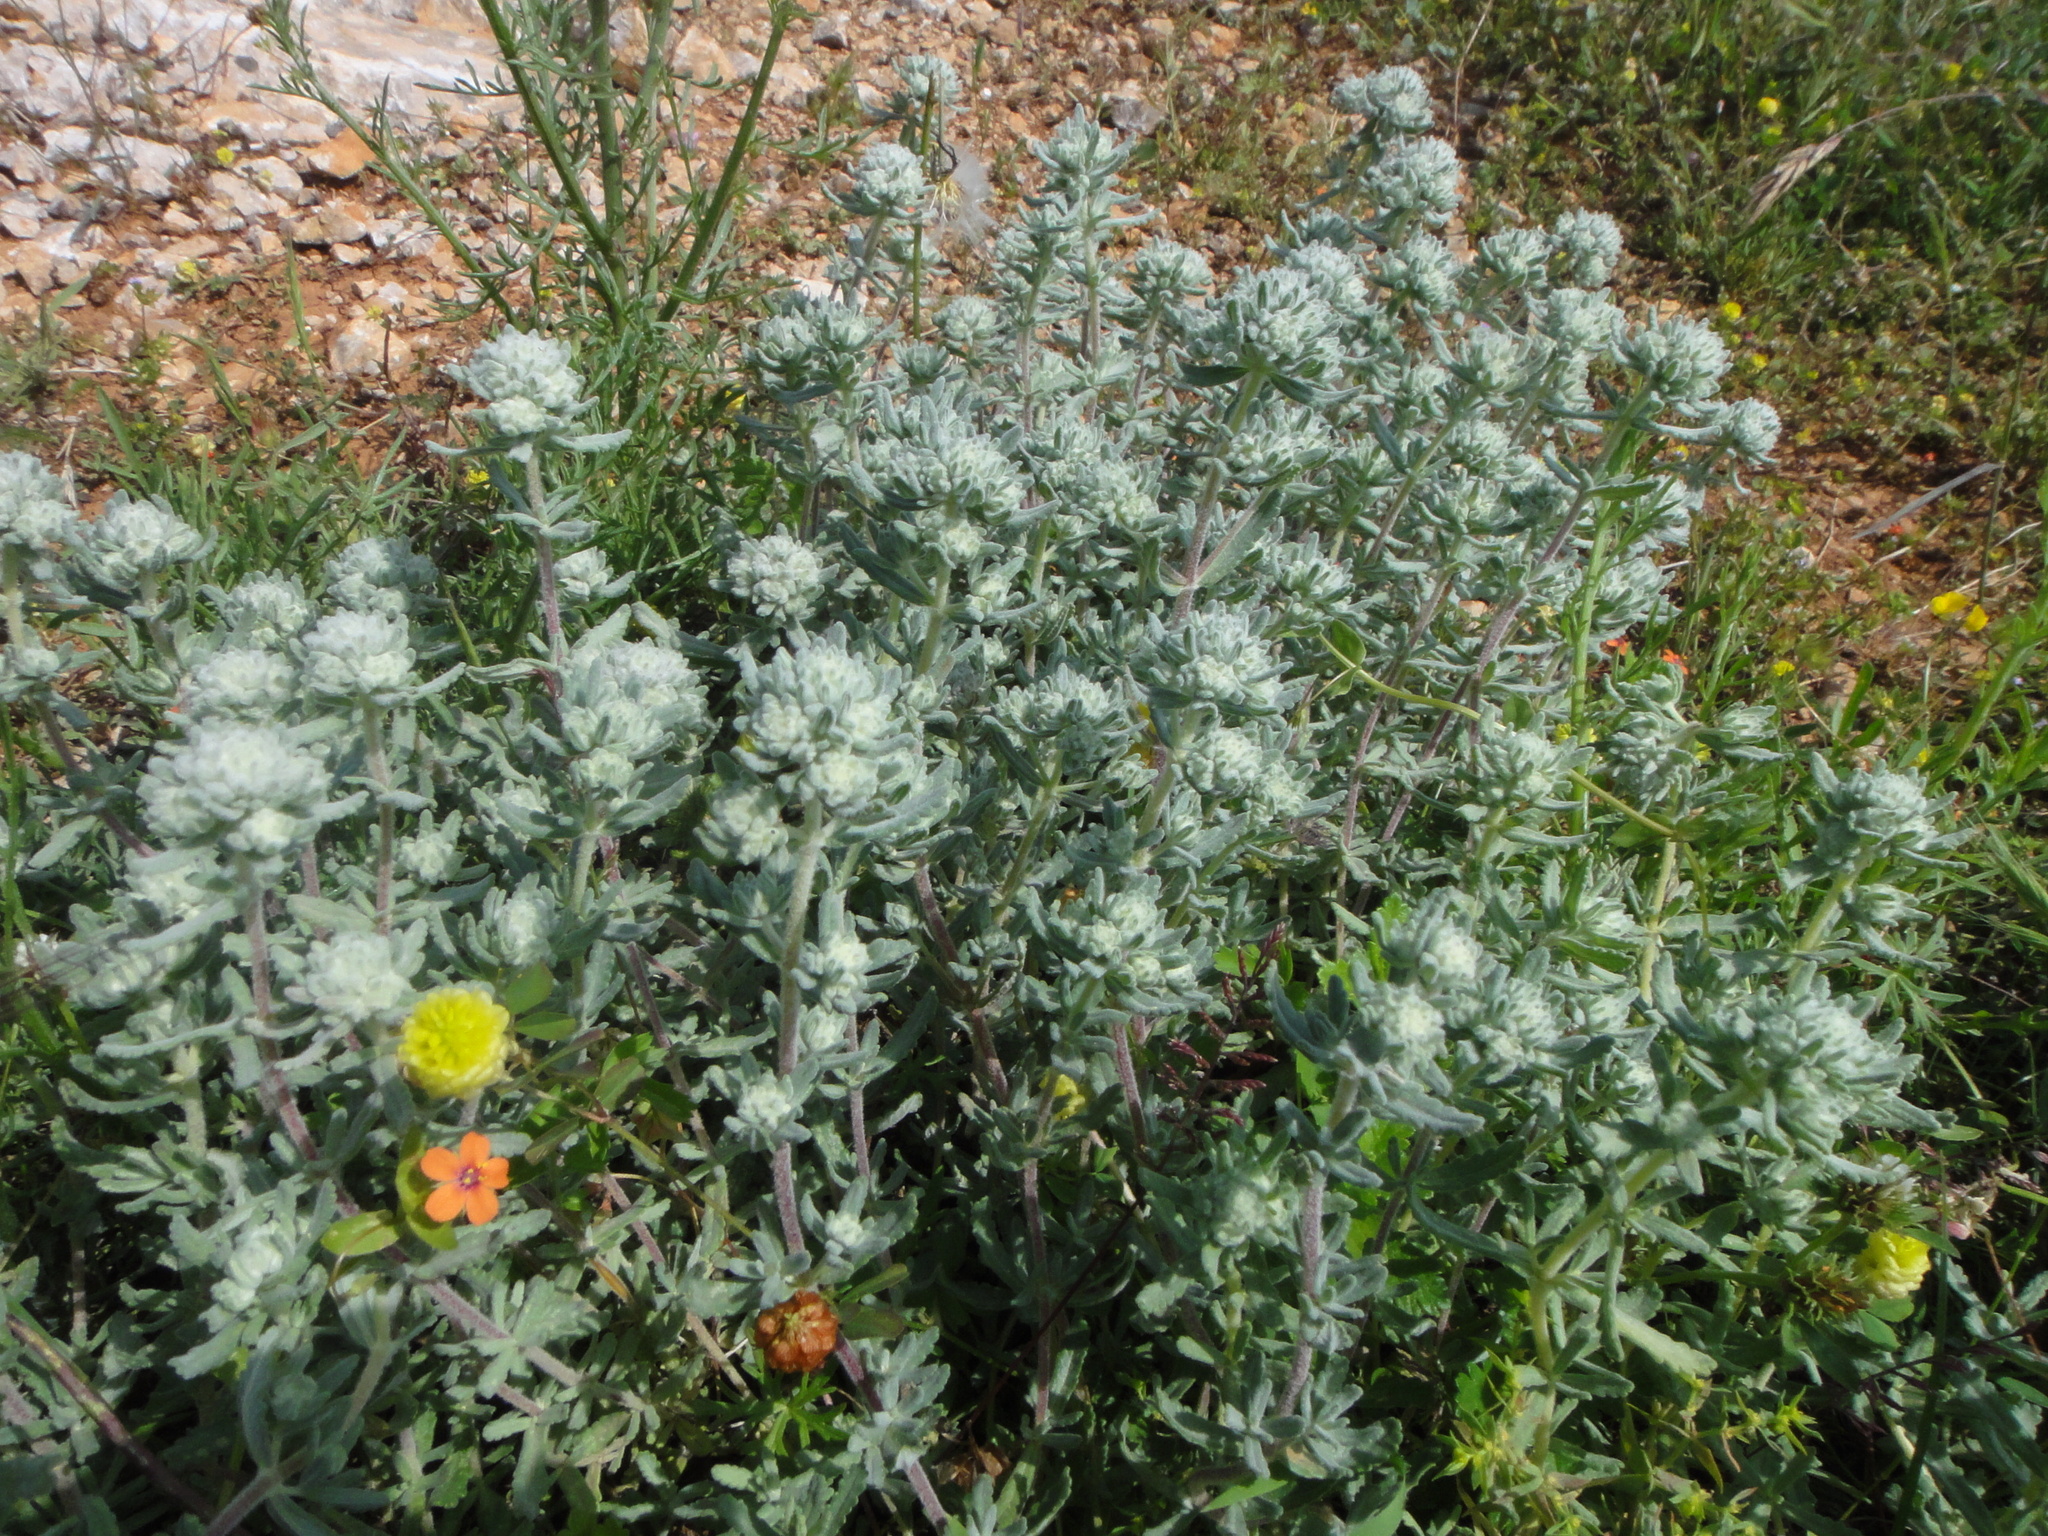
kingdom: Plantae
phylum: Tracheophyta
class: Magnoliopsida
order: Lamiales
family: Lamiaceae
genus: Teucrium
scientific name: Teucrium capitatum
